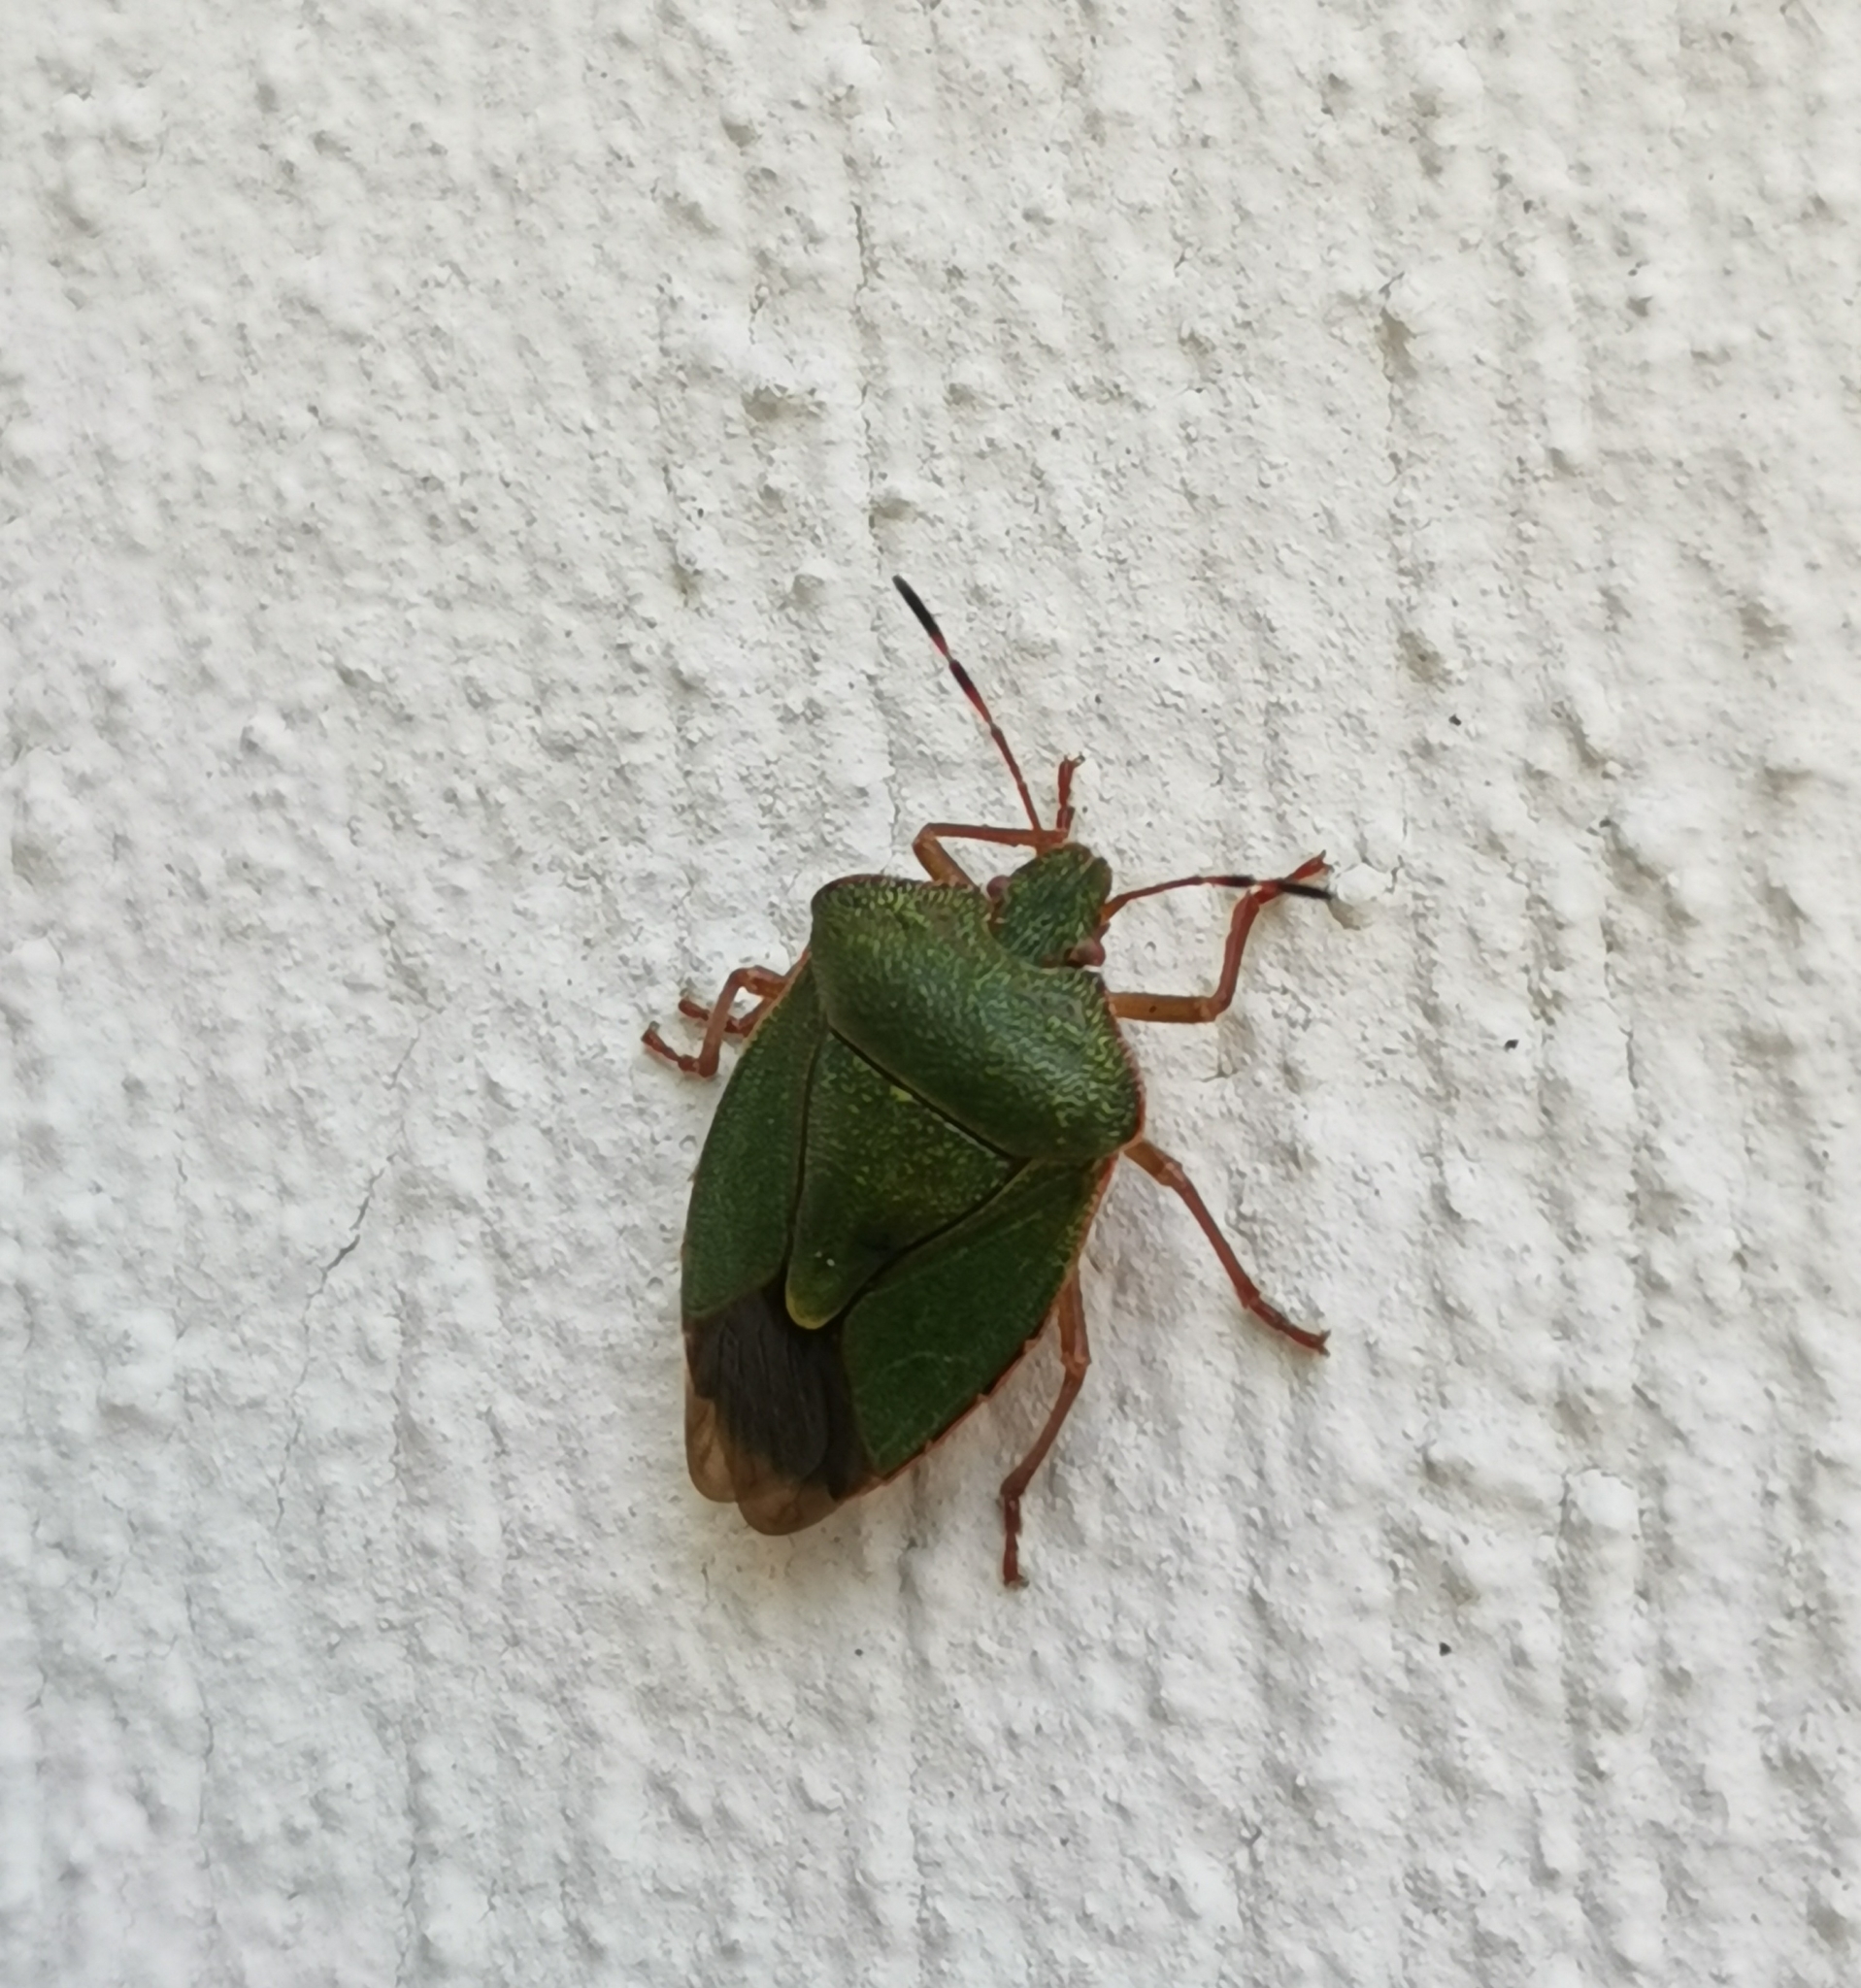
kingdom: Animalia
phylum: Arthropoda
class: Insecta
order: Hemiptera
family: Pentatomidae
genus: Palomena
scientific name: Palomena prasina
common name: Green shieldbug
